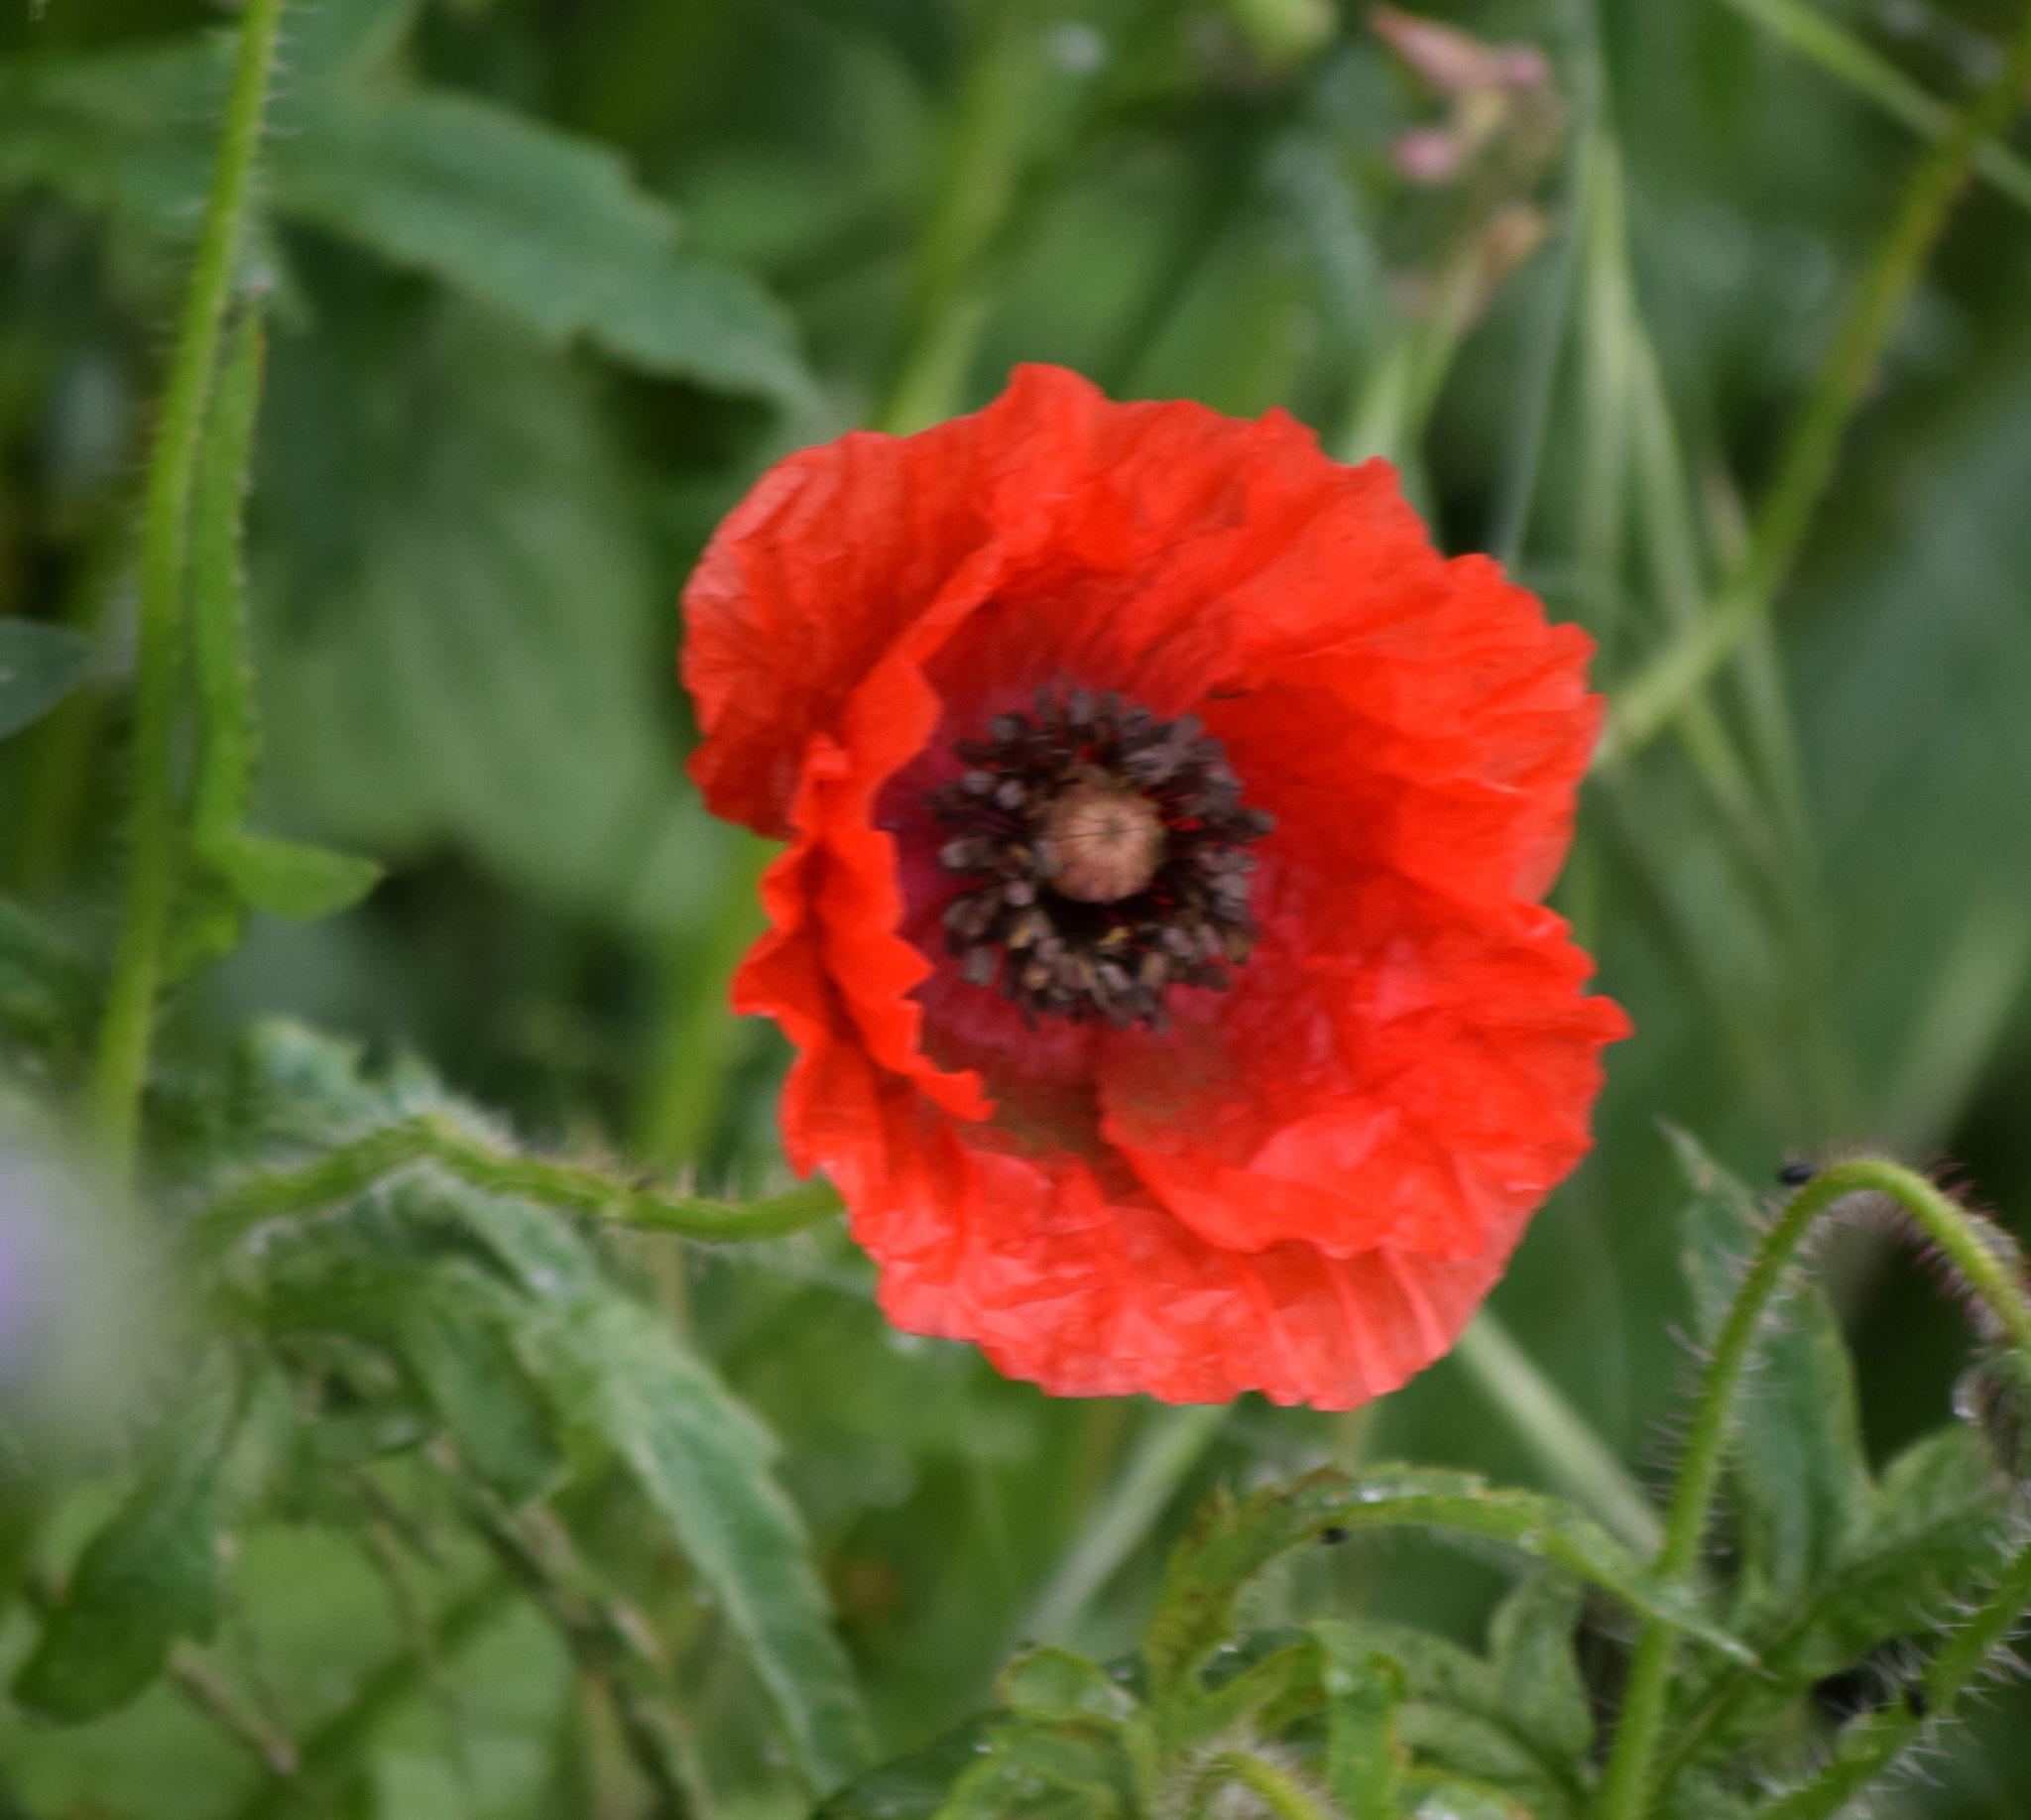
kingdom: Plantae
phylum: Tracheophyta
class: Magnoliopsida
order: Ranunculales
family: Papaveraceae
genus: Papaver
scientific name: Papaver rhoeas
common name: Corn poppy
